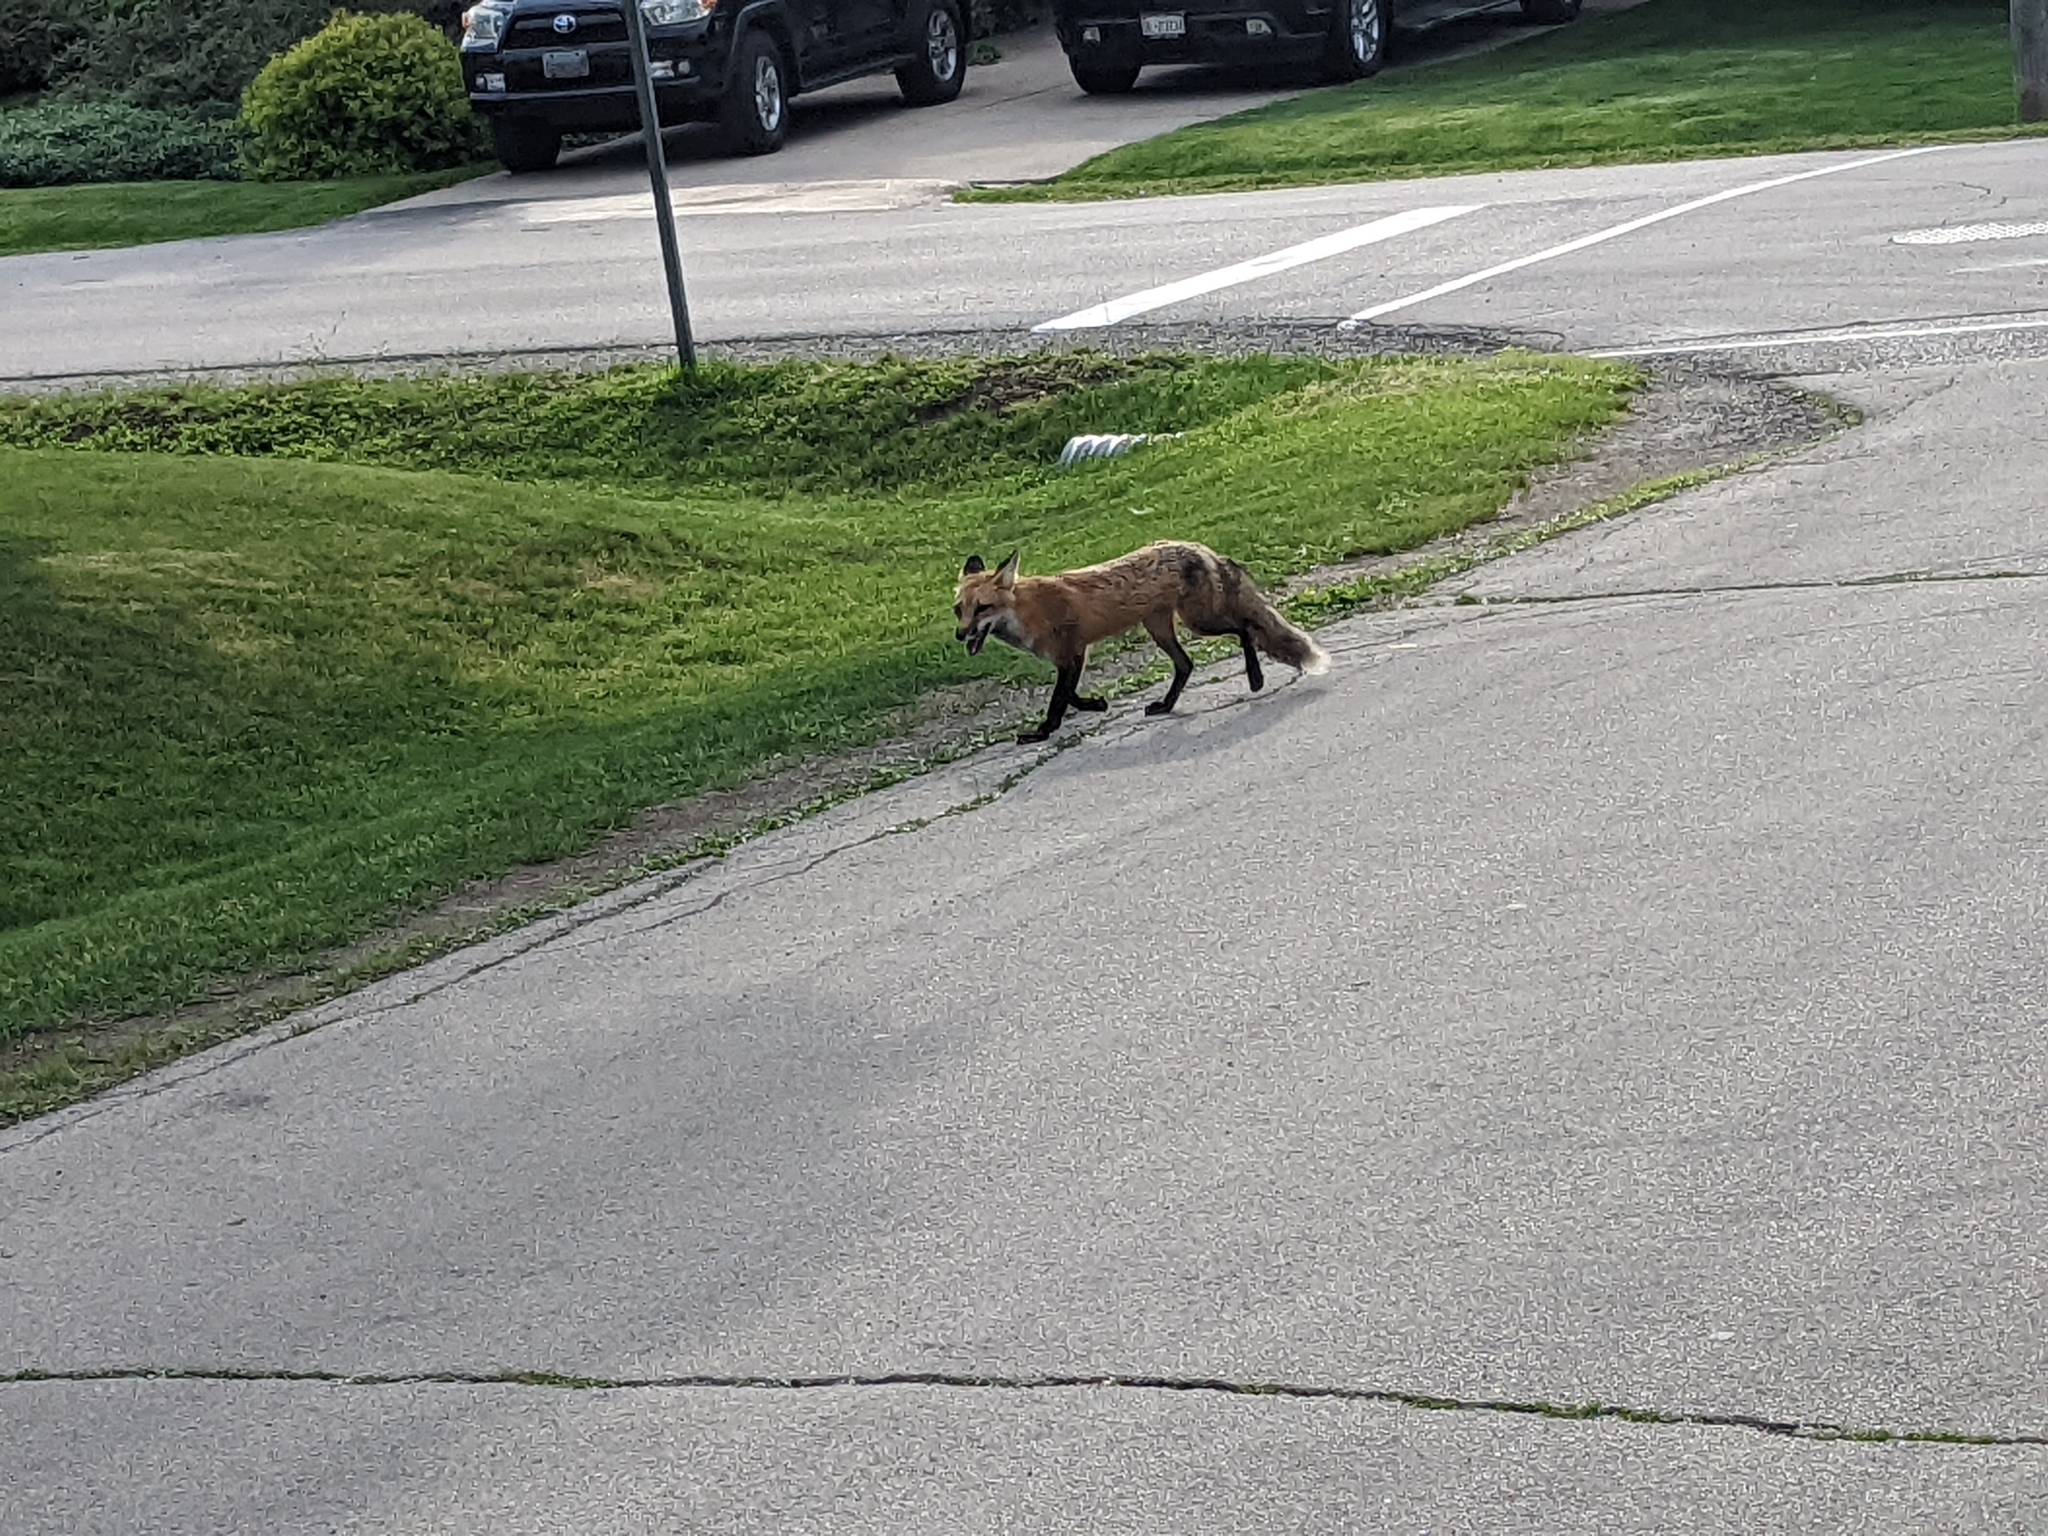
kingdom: Animalia
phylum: Chordata
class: Mammalia
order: Carnivora
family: Canidae
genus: Vulpes
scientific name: Vulpes vulpes
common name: Red fox
